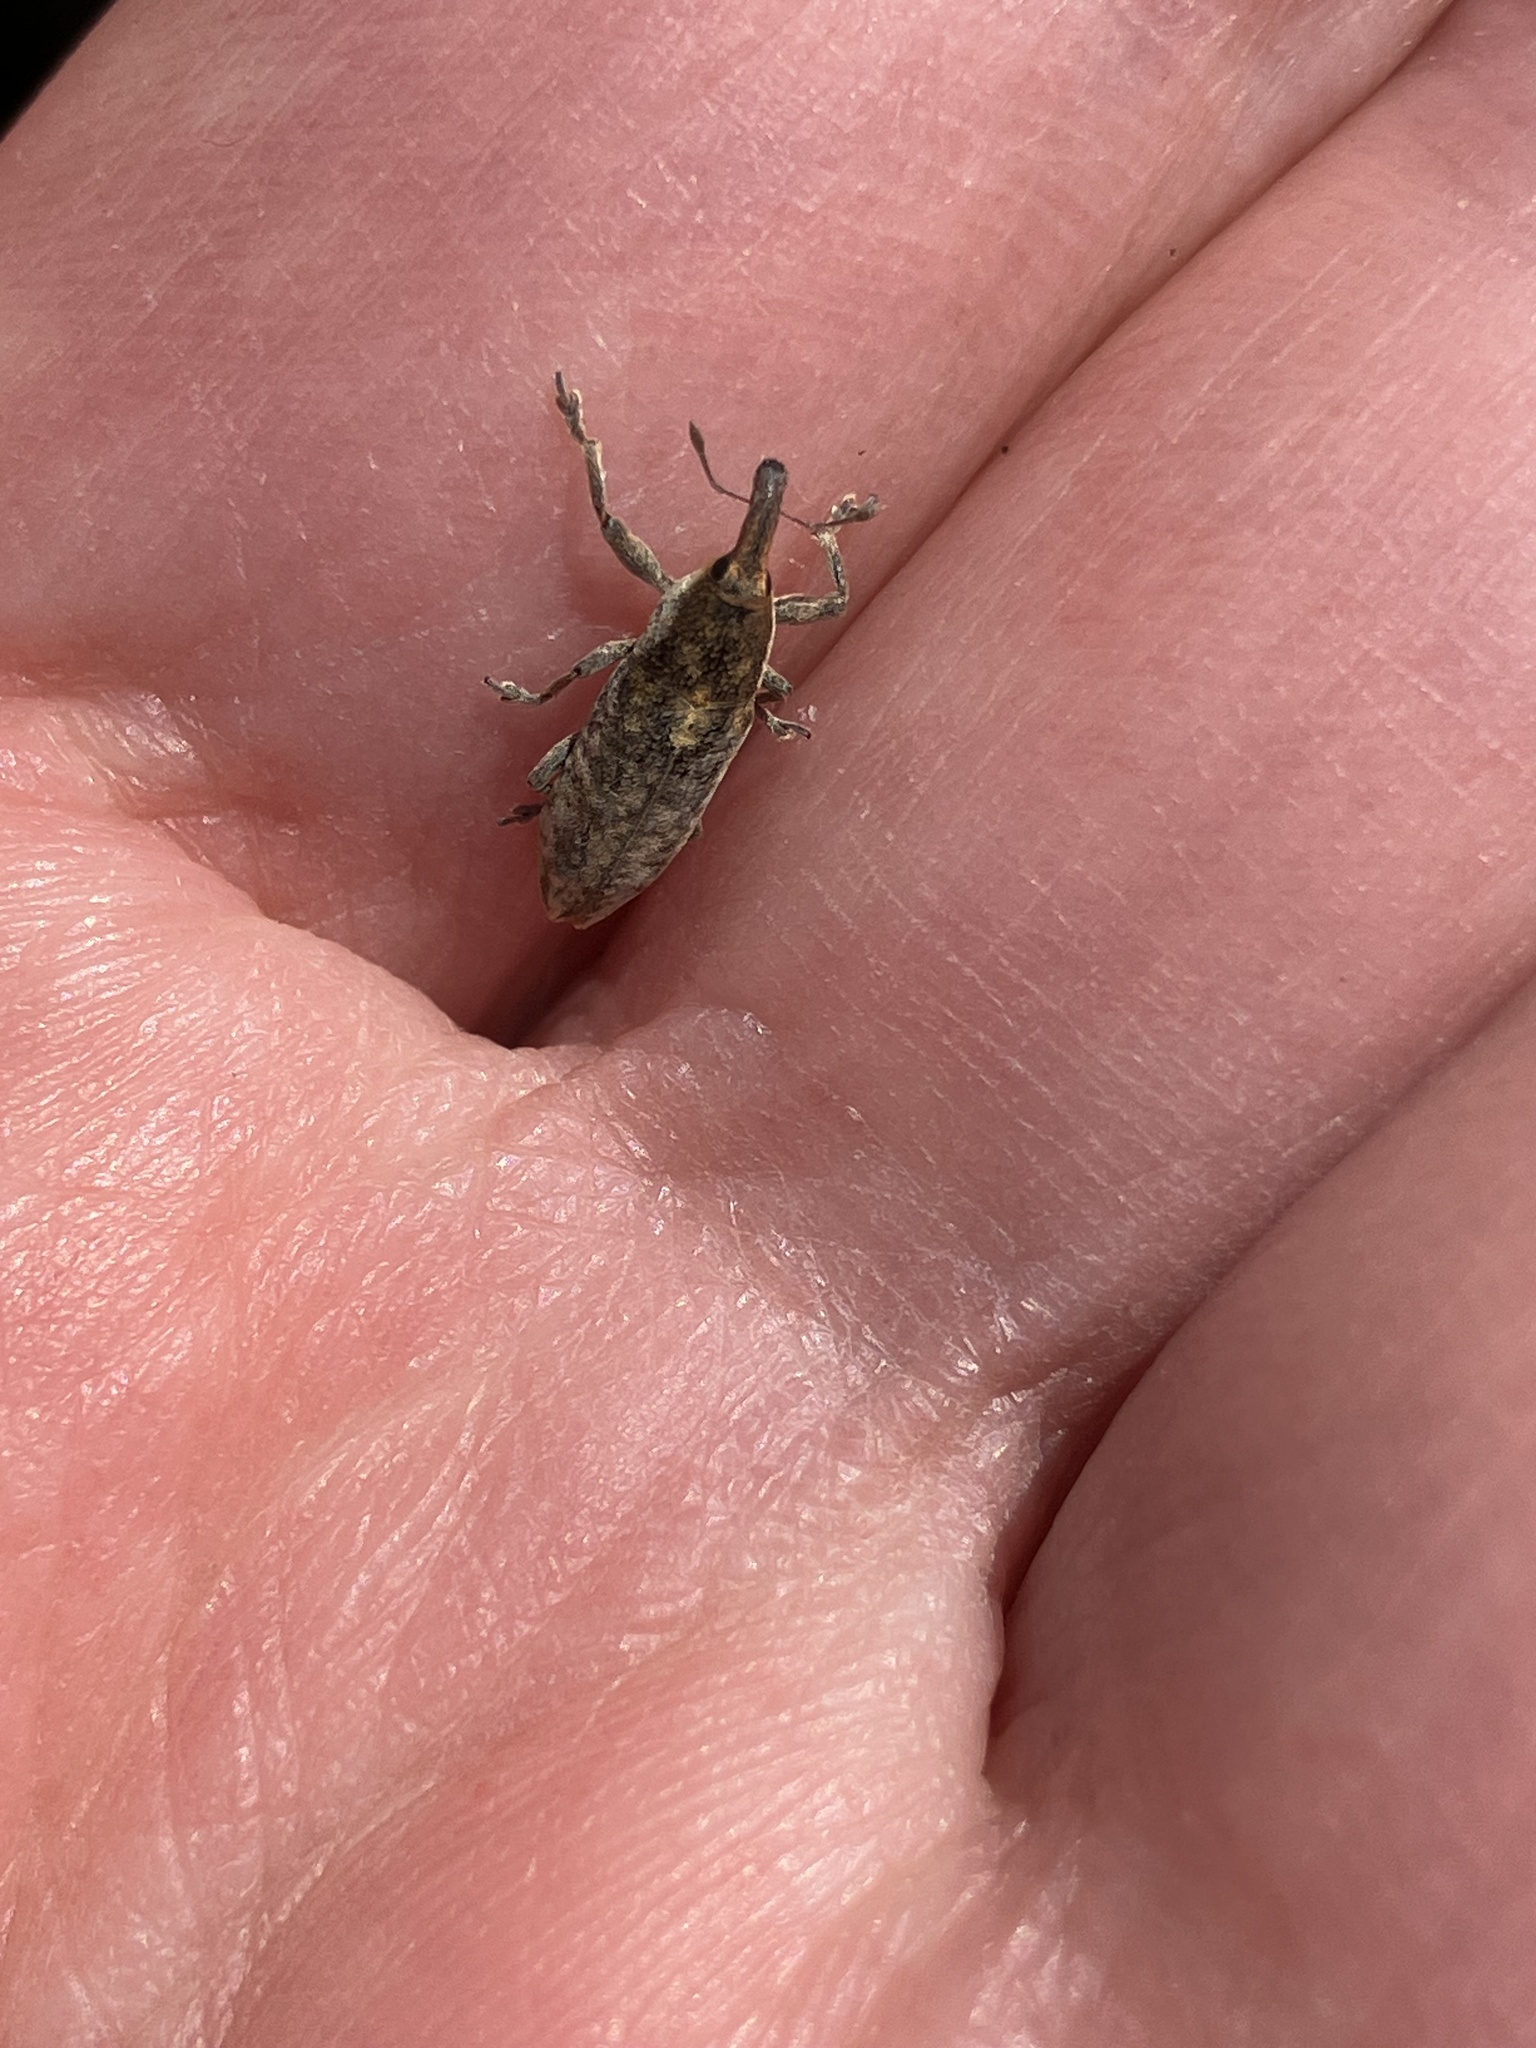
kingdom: Animalia
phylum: Arthropoda
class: Insecta
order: Coleoptera
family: Curculionidae
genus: Lixus
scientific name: Lixus subtilis
